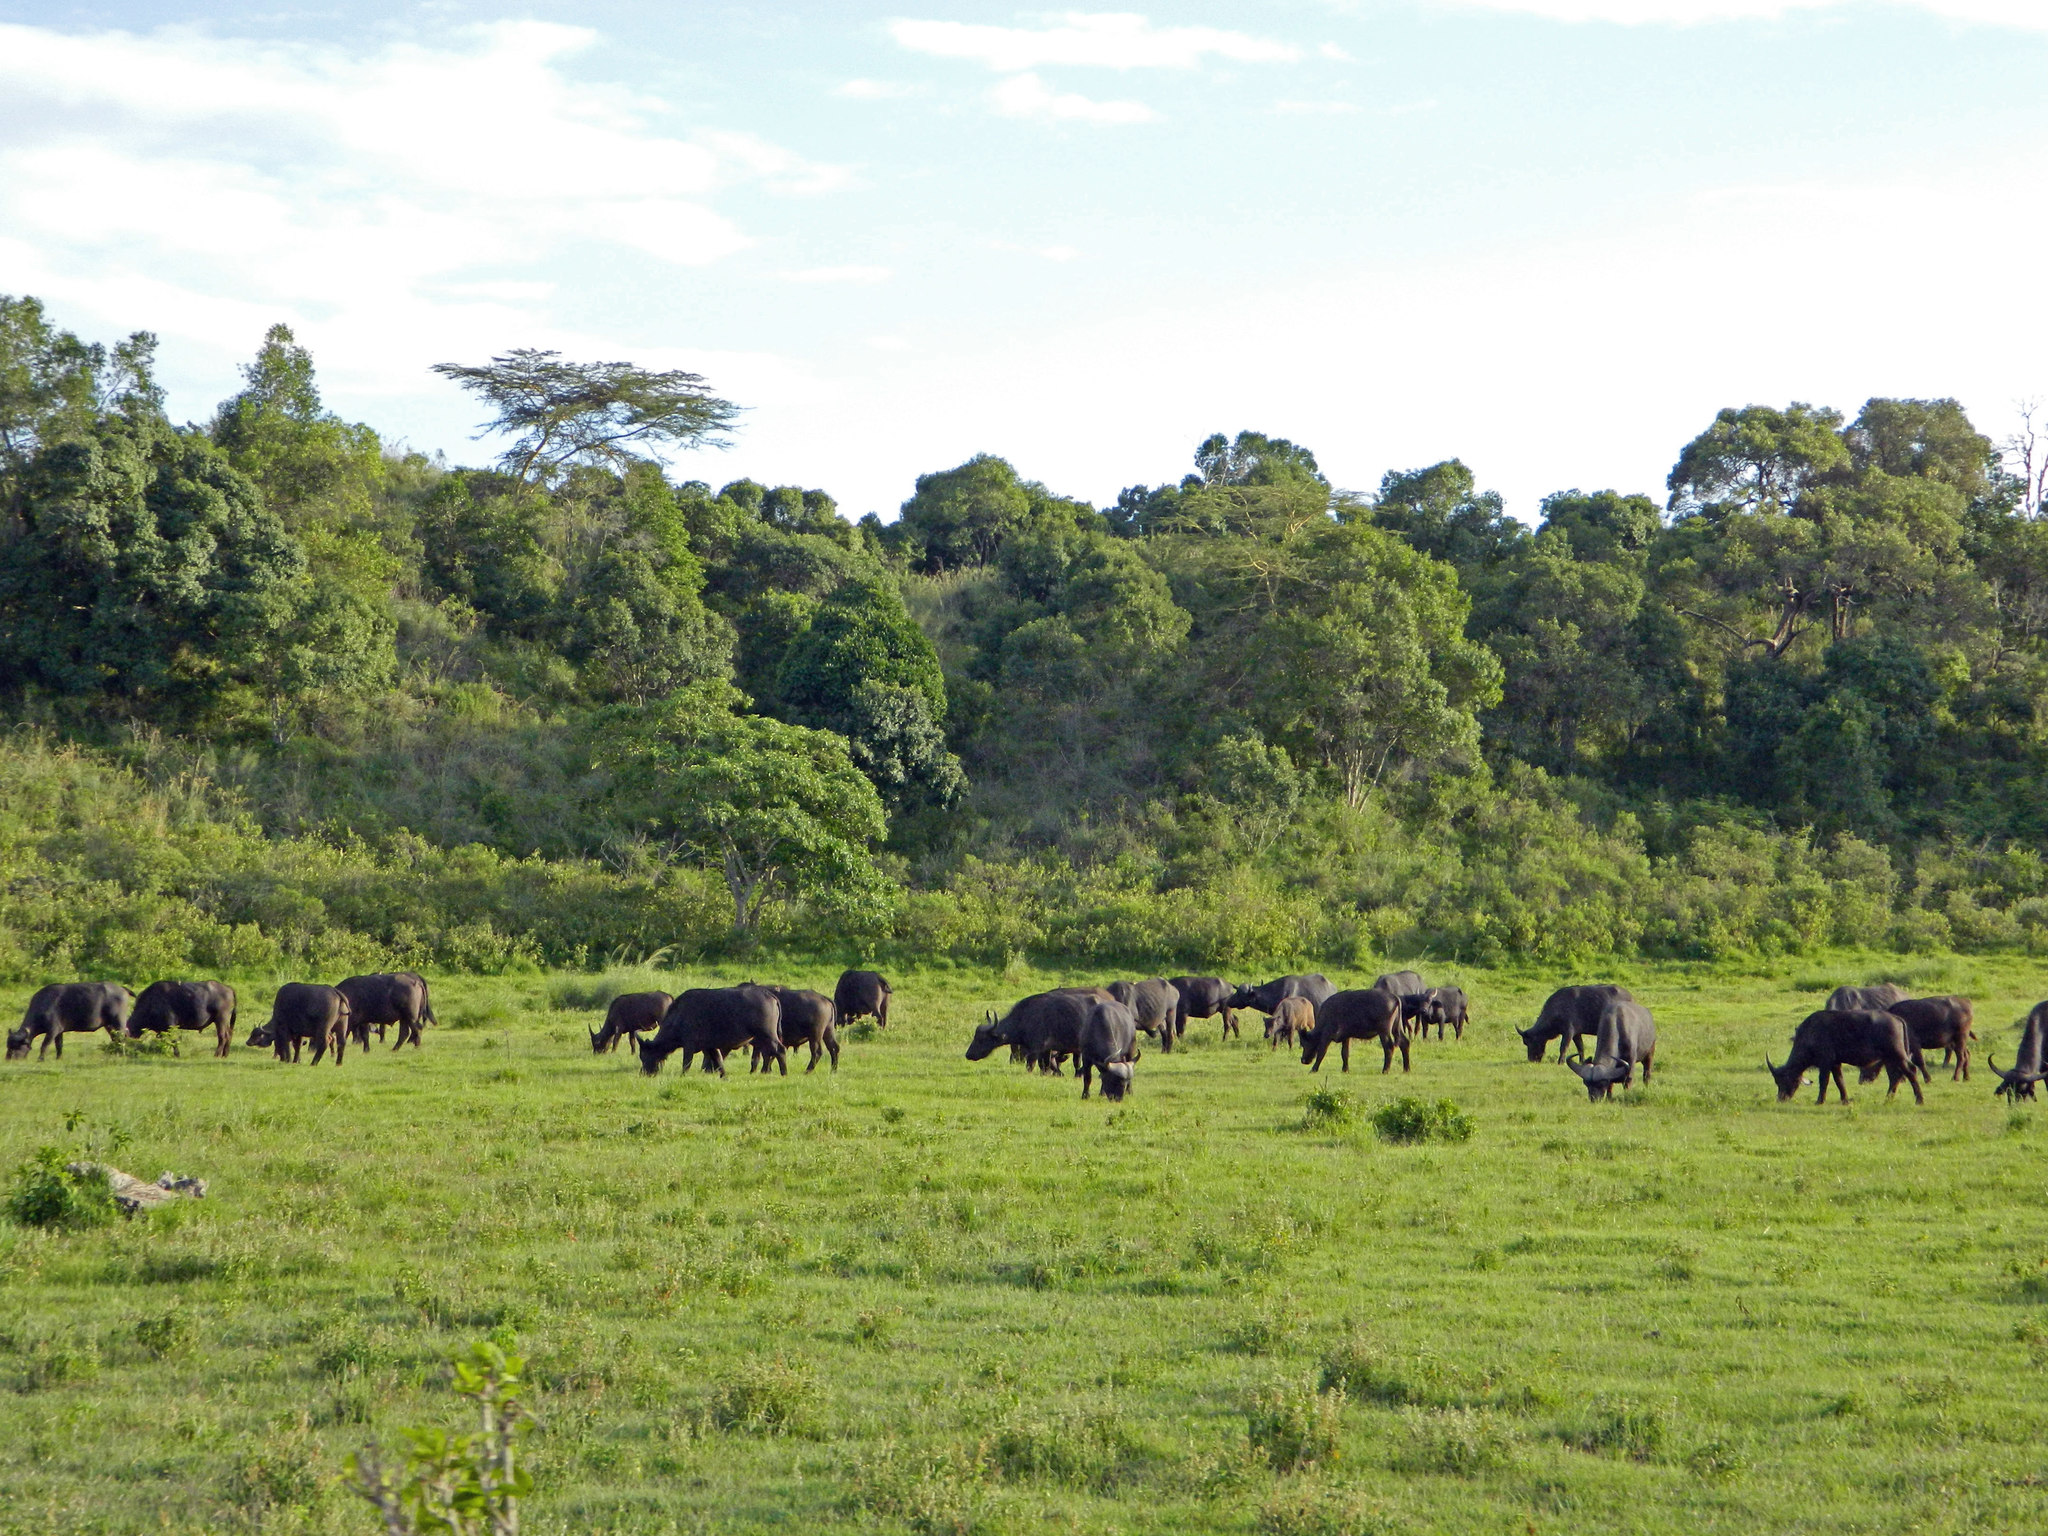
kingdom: Animalia
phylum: Chordata
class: Mammalia
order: Artiodactyla
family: Bovidae
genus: Syncerus
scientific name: Syncerus caffer
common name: African buffalo
